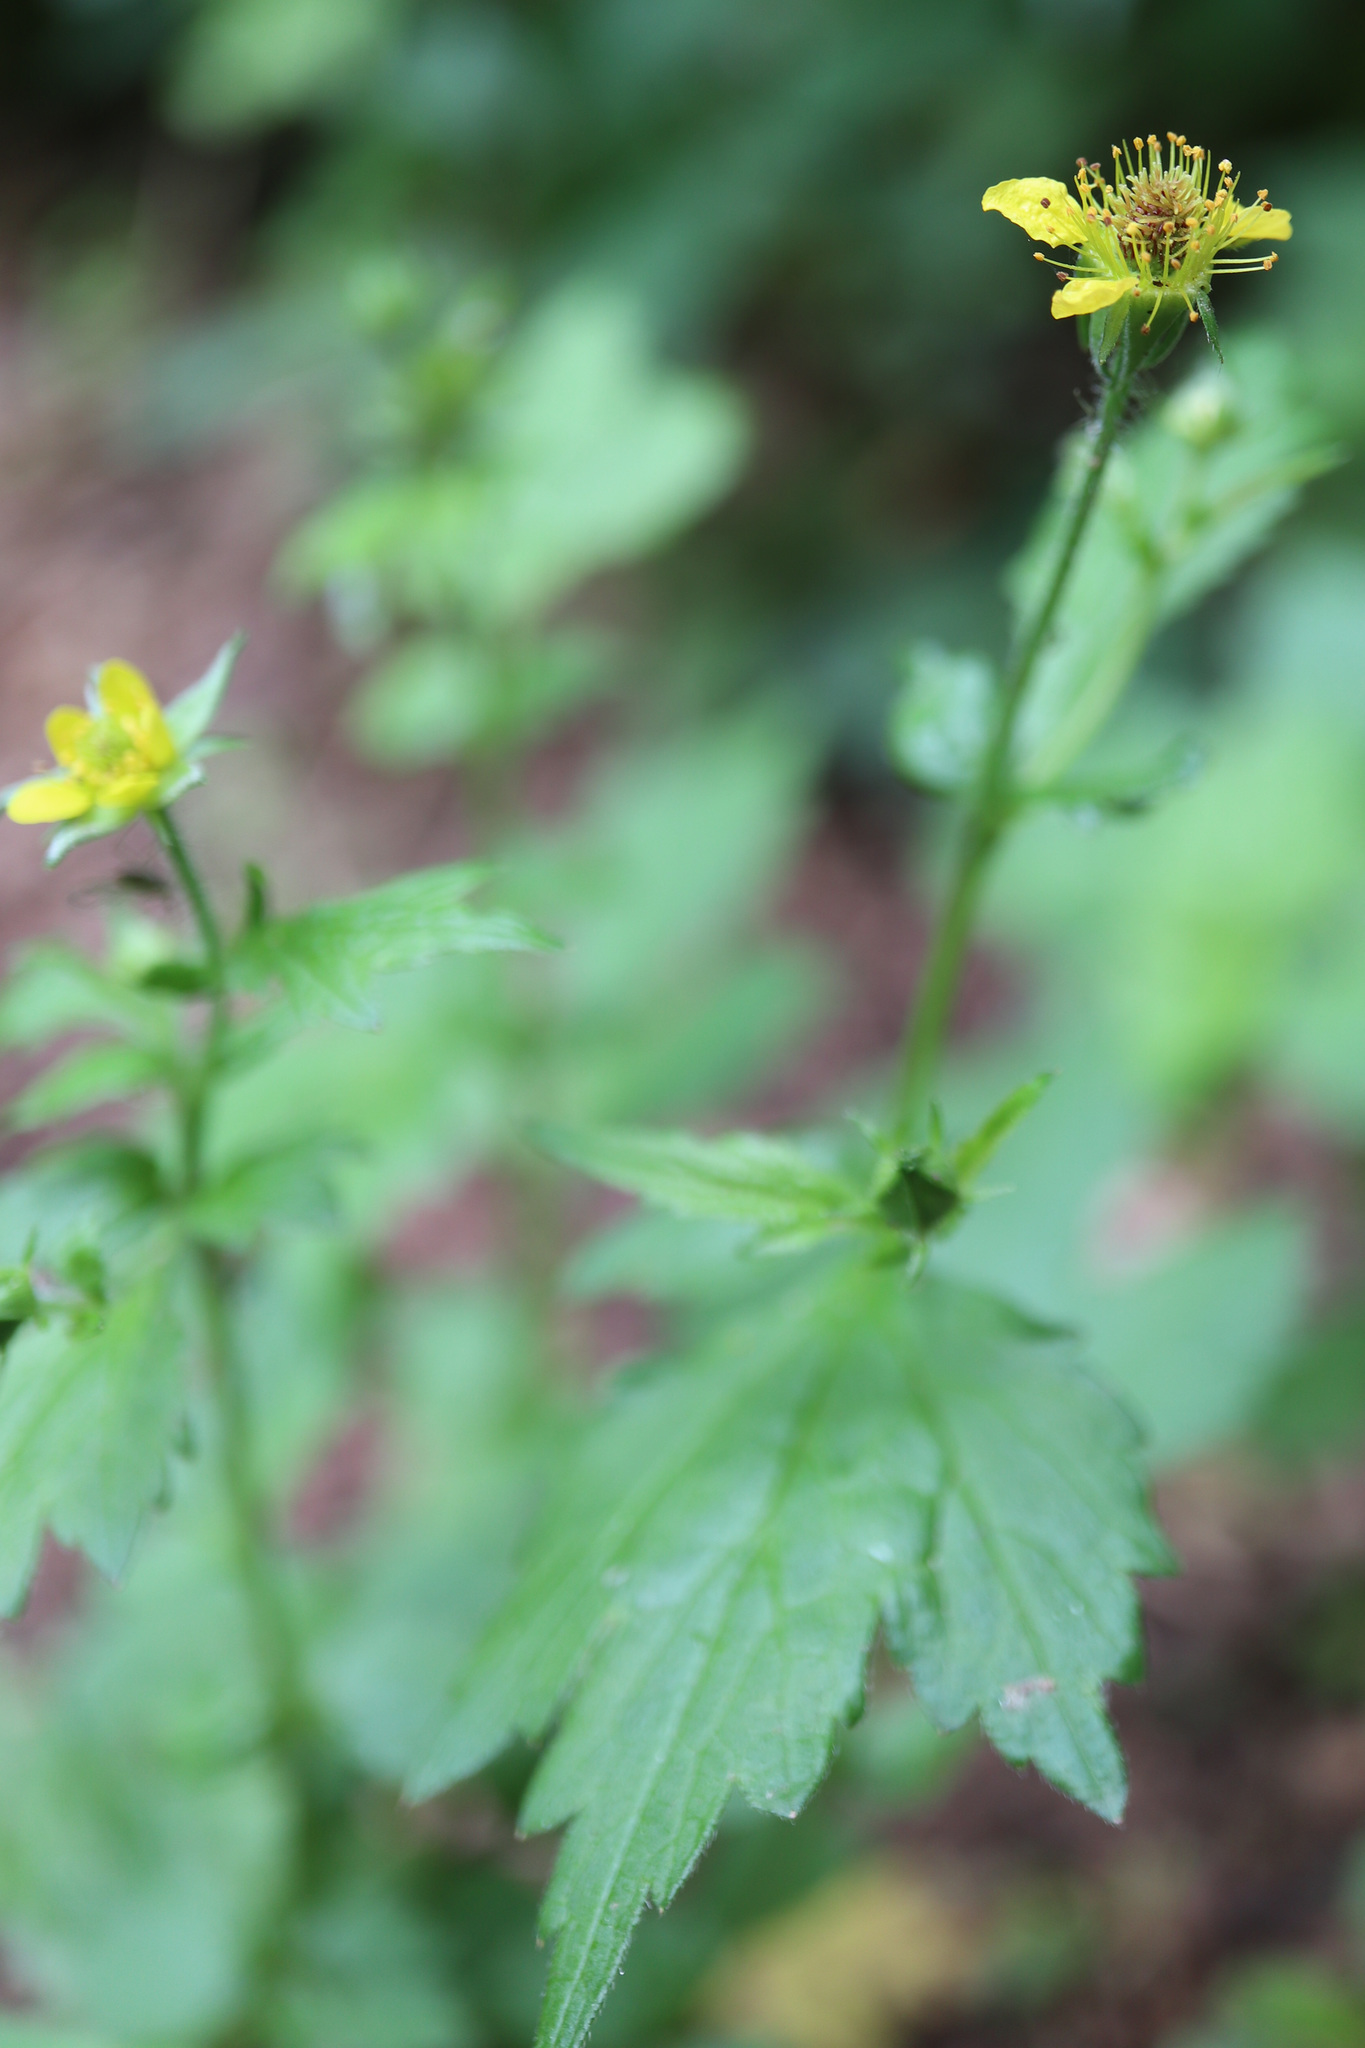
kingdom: Plantae
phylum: Tracheophyta
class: Magnoliopsida
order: Rosales
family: Rosaceae
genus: Geum
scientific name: Geum urbanum
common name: Wood avens
